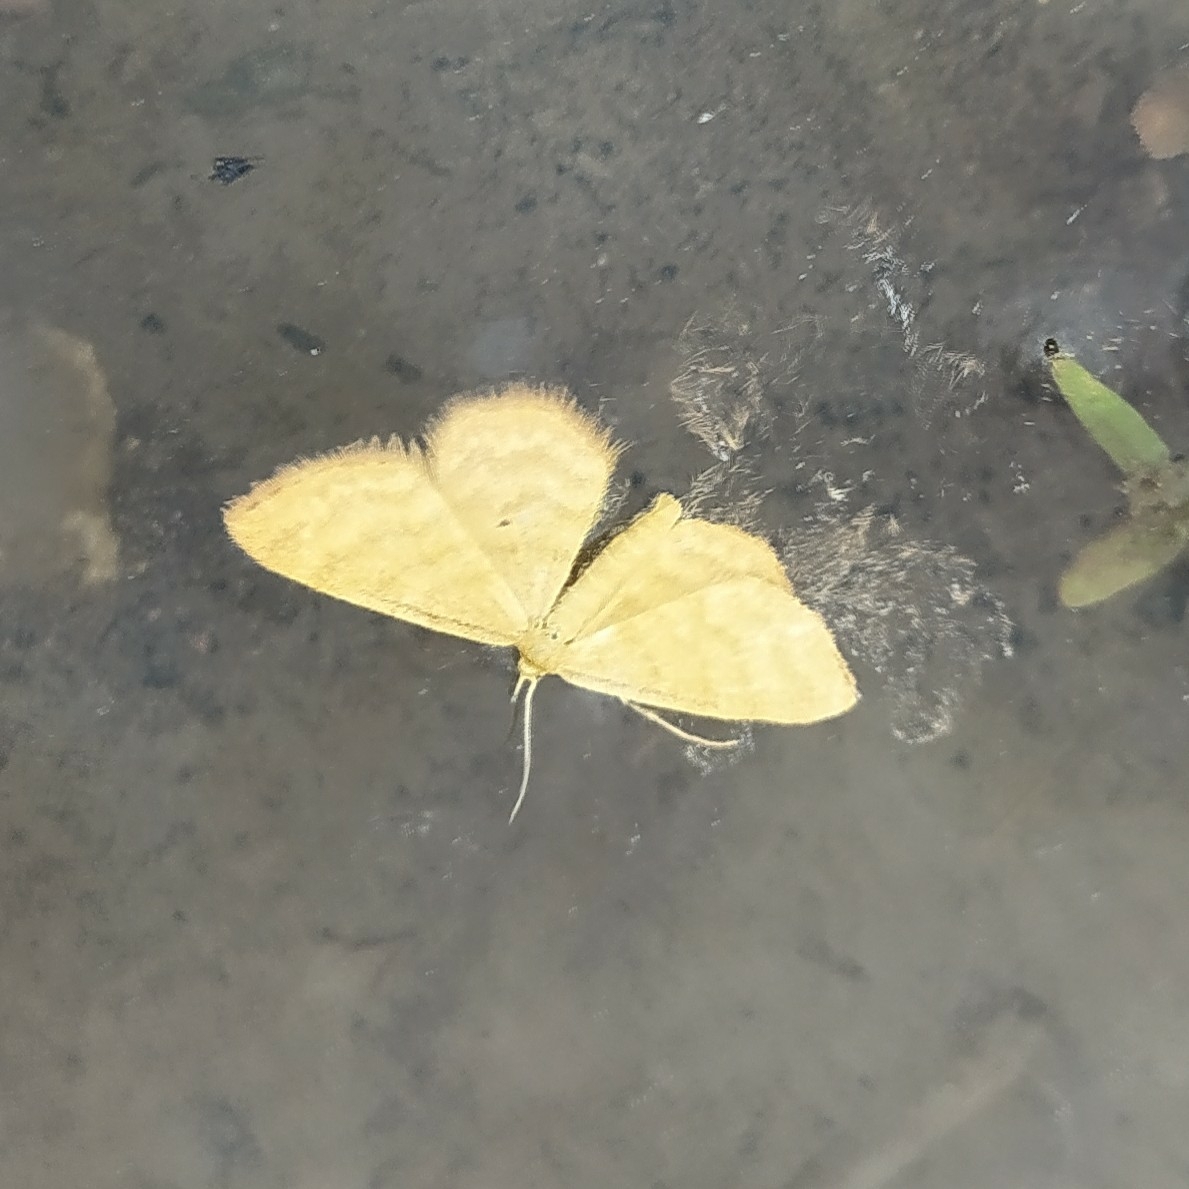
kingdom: Animalia
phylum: Arthropoda
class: Insecta
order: Lepidoptera
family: Geometridae
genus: Idaea
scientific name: Idaea humiliata
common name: Isle of wight wave
